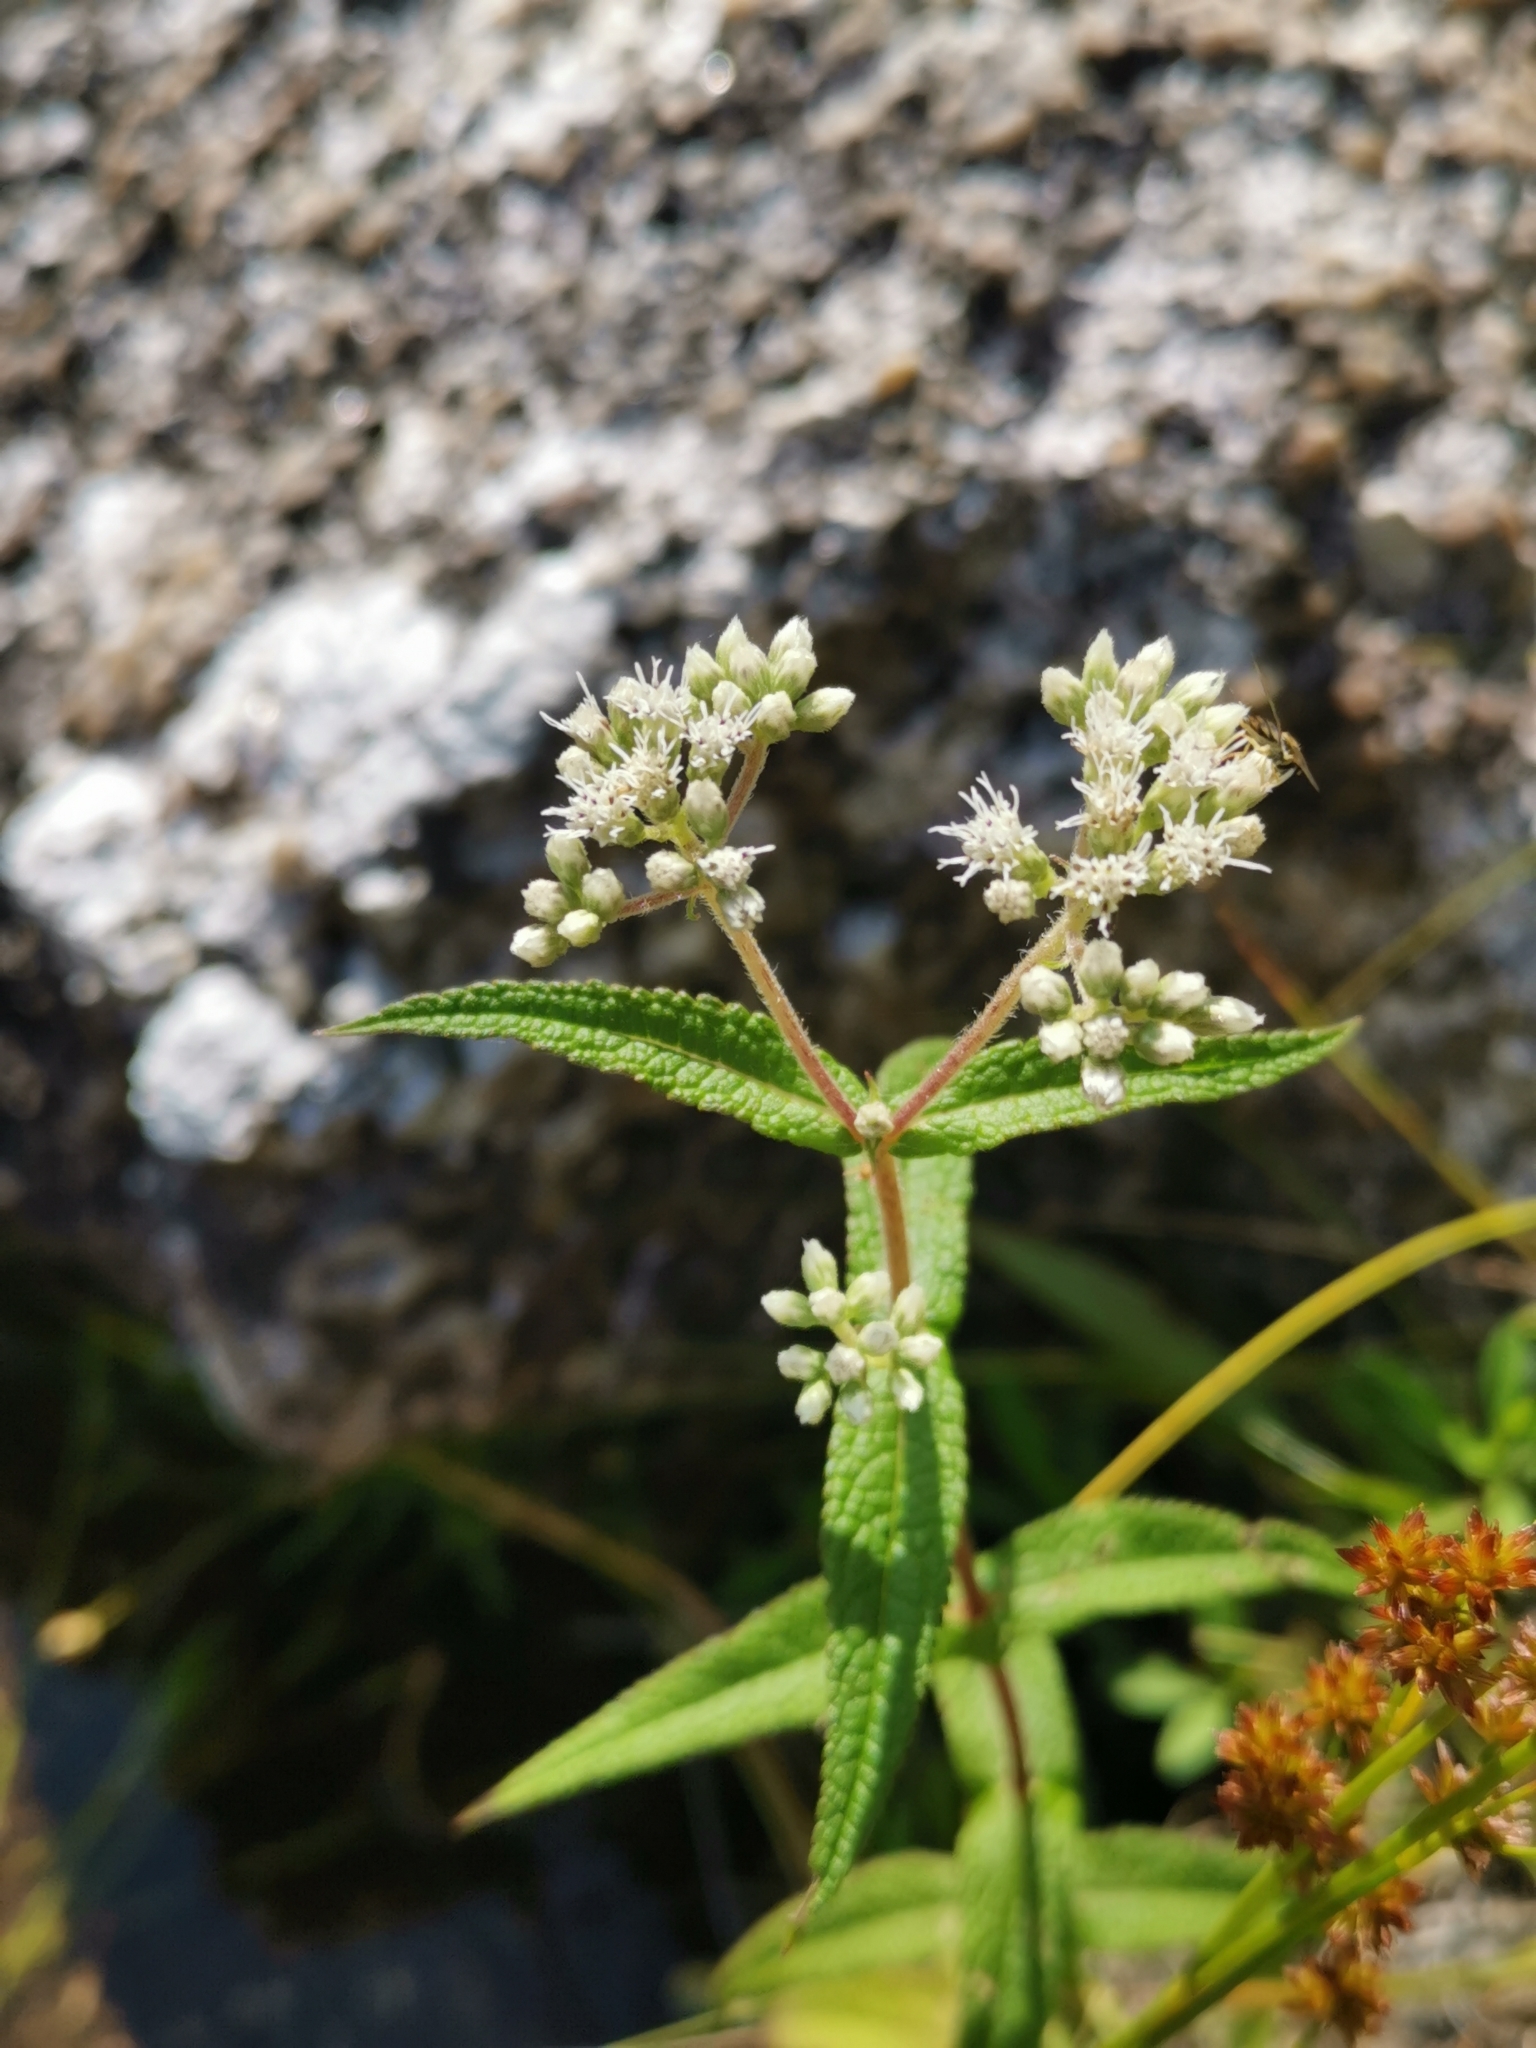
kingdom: Plantae
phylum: Tracheophyta
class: Magnoliopsida
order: Asterales
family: Asteraceae
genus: Eupatorium
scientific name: Eupatorium perfoliatum
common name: Boneset
